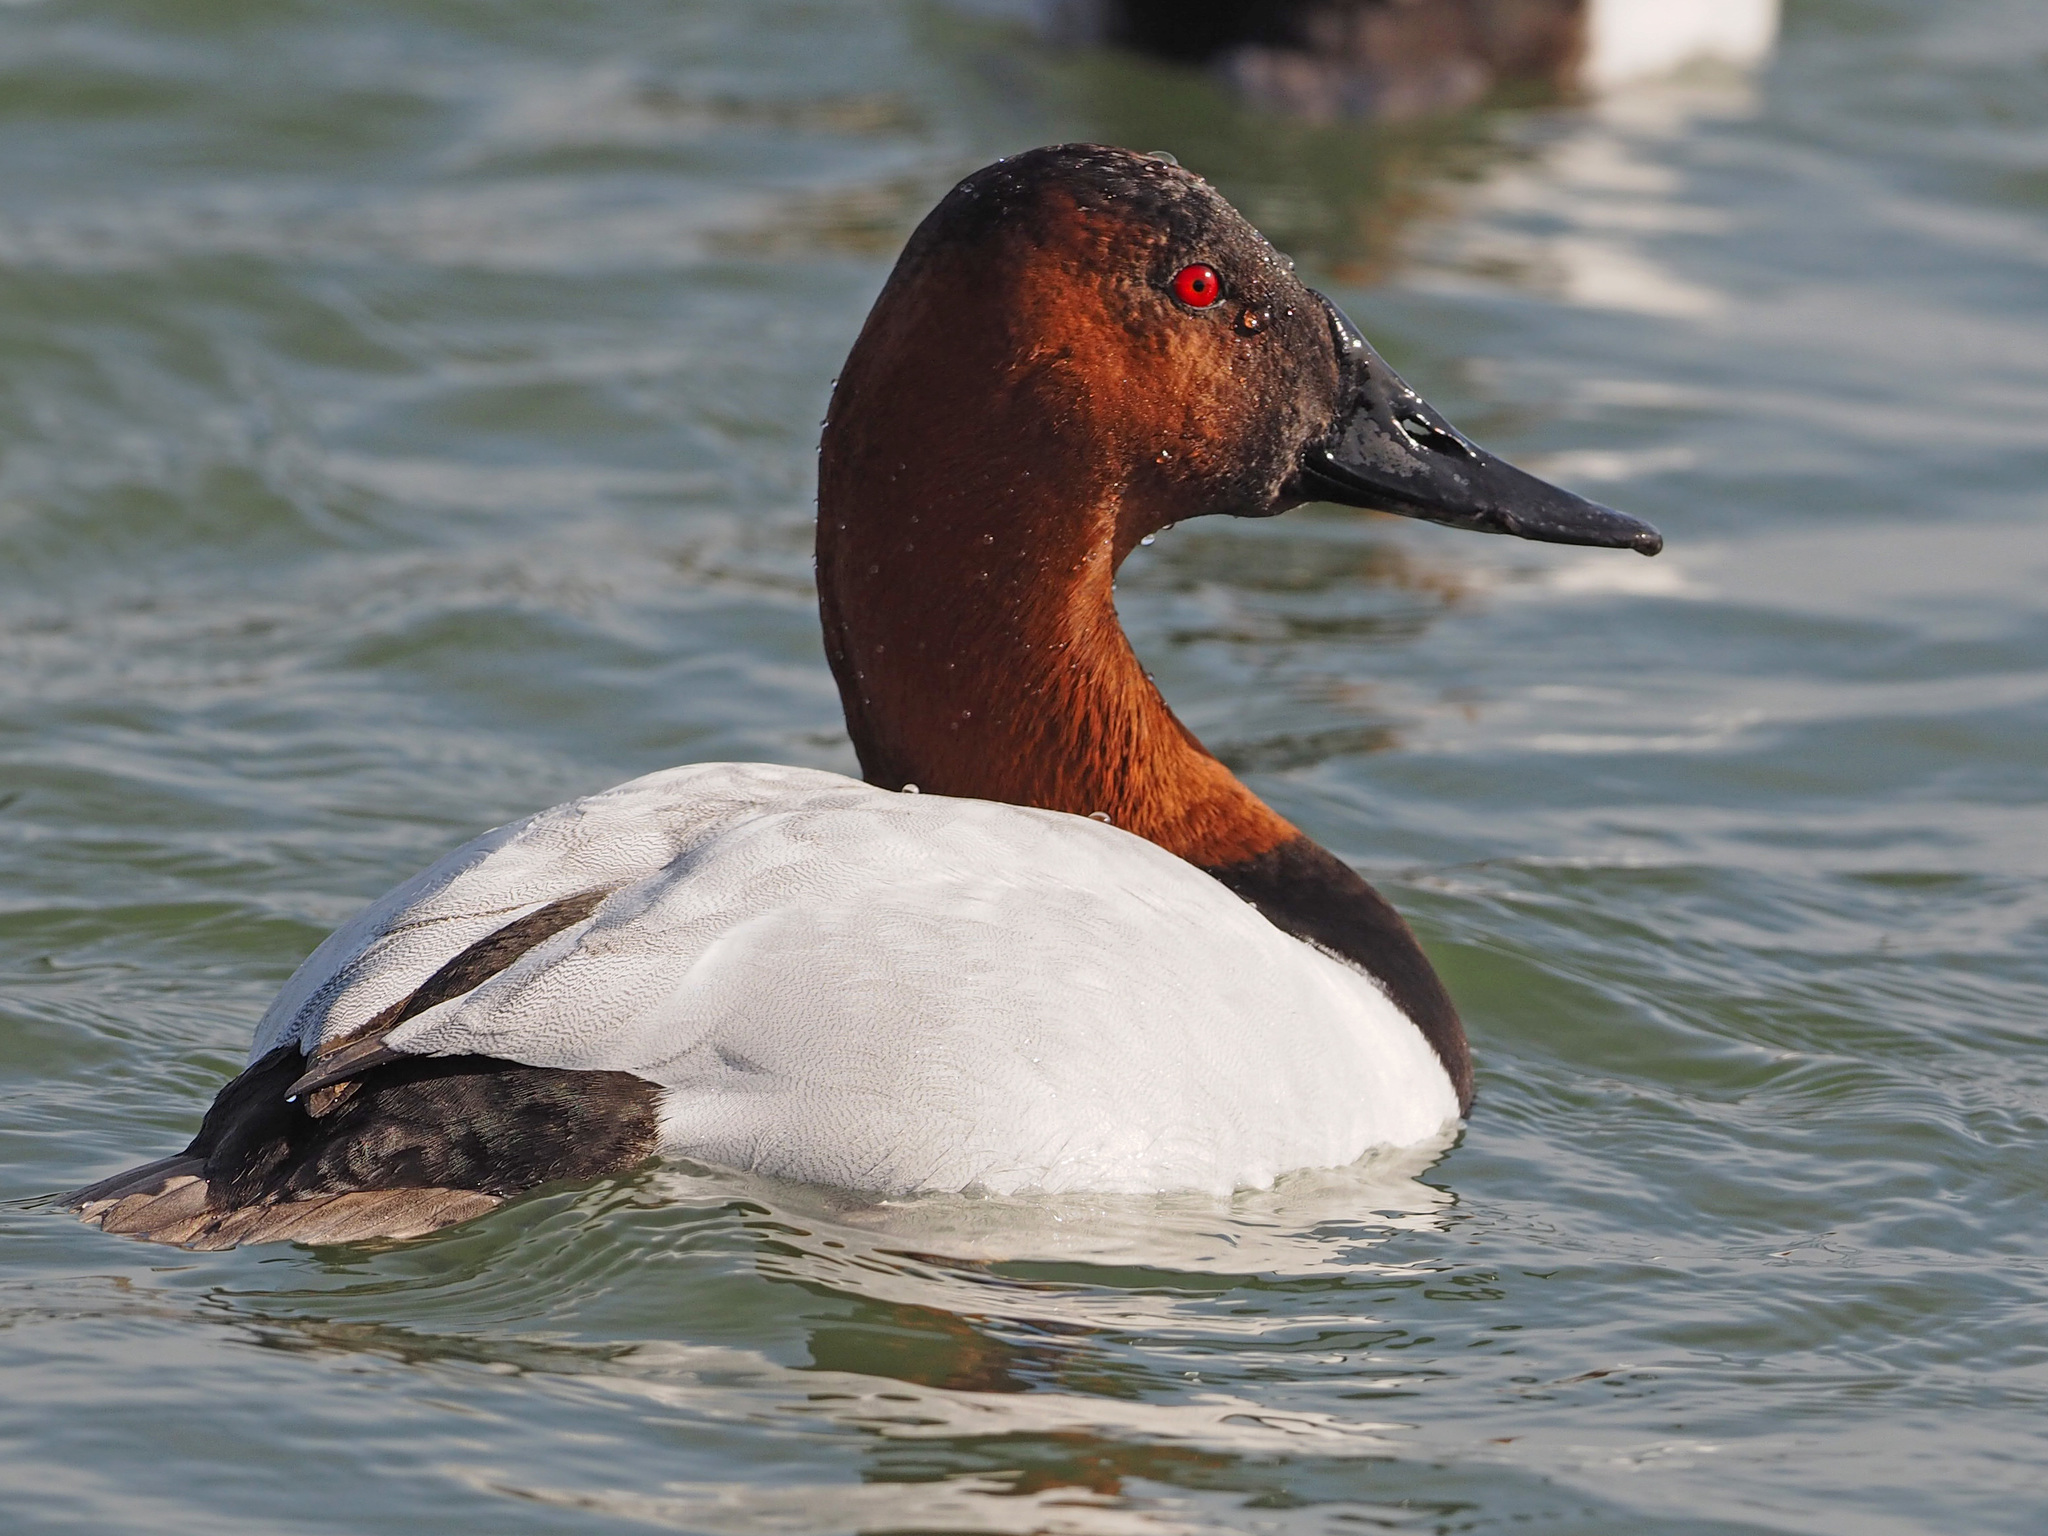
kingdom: Animalia
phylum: Chordata
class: Aves
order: Anseriformes
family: Anatidae
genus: Aythya
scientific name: Aythya valisineria
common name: Canvasback
